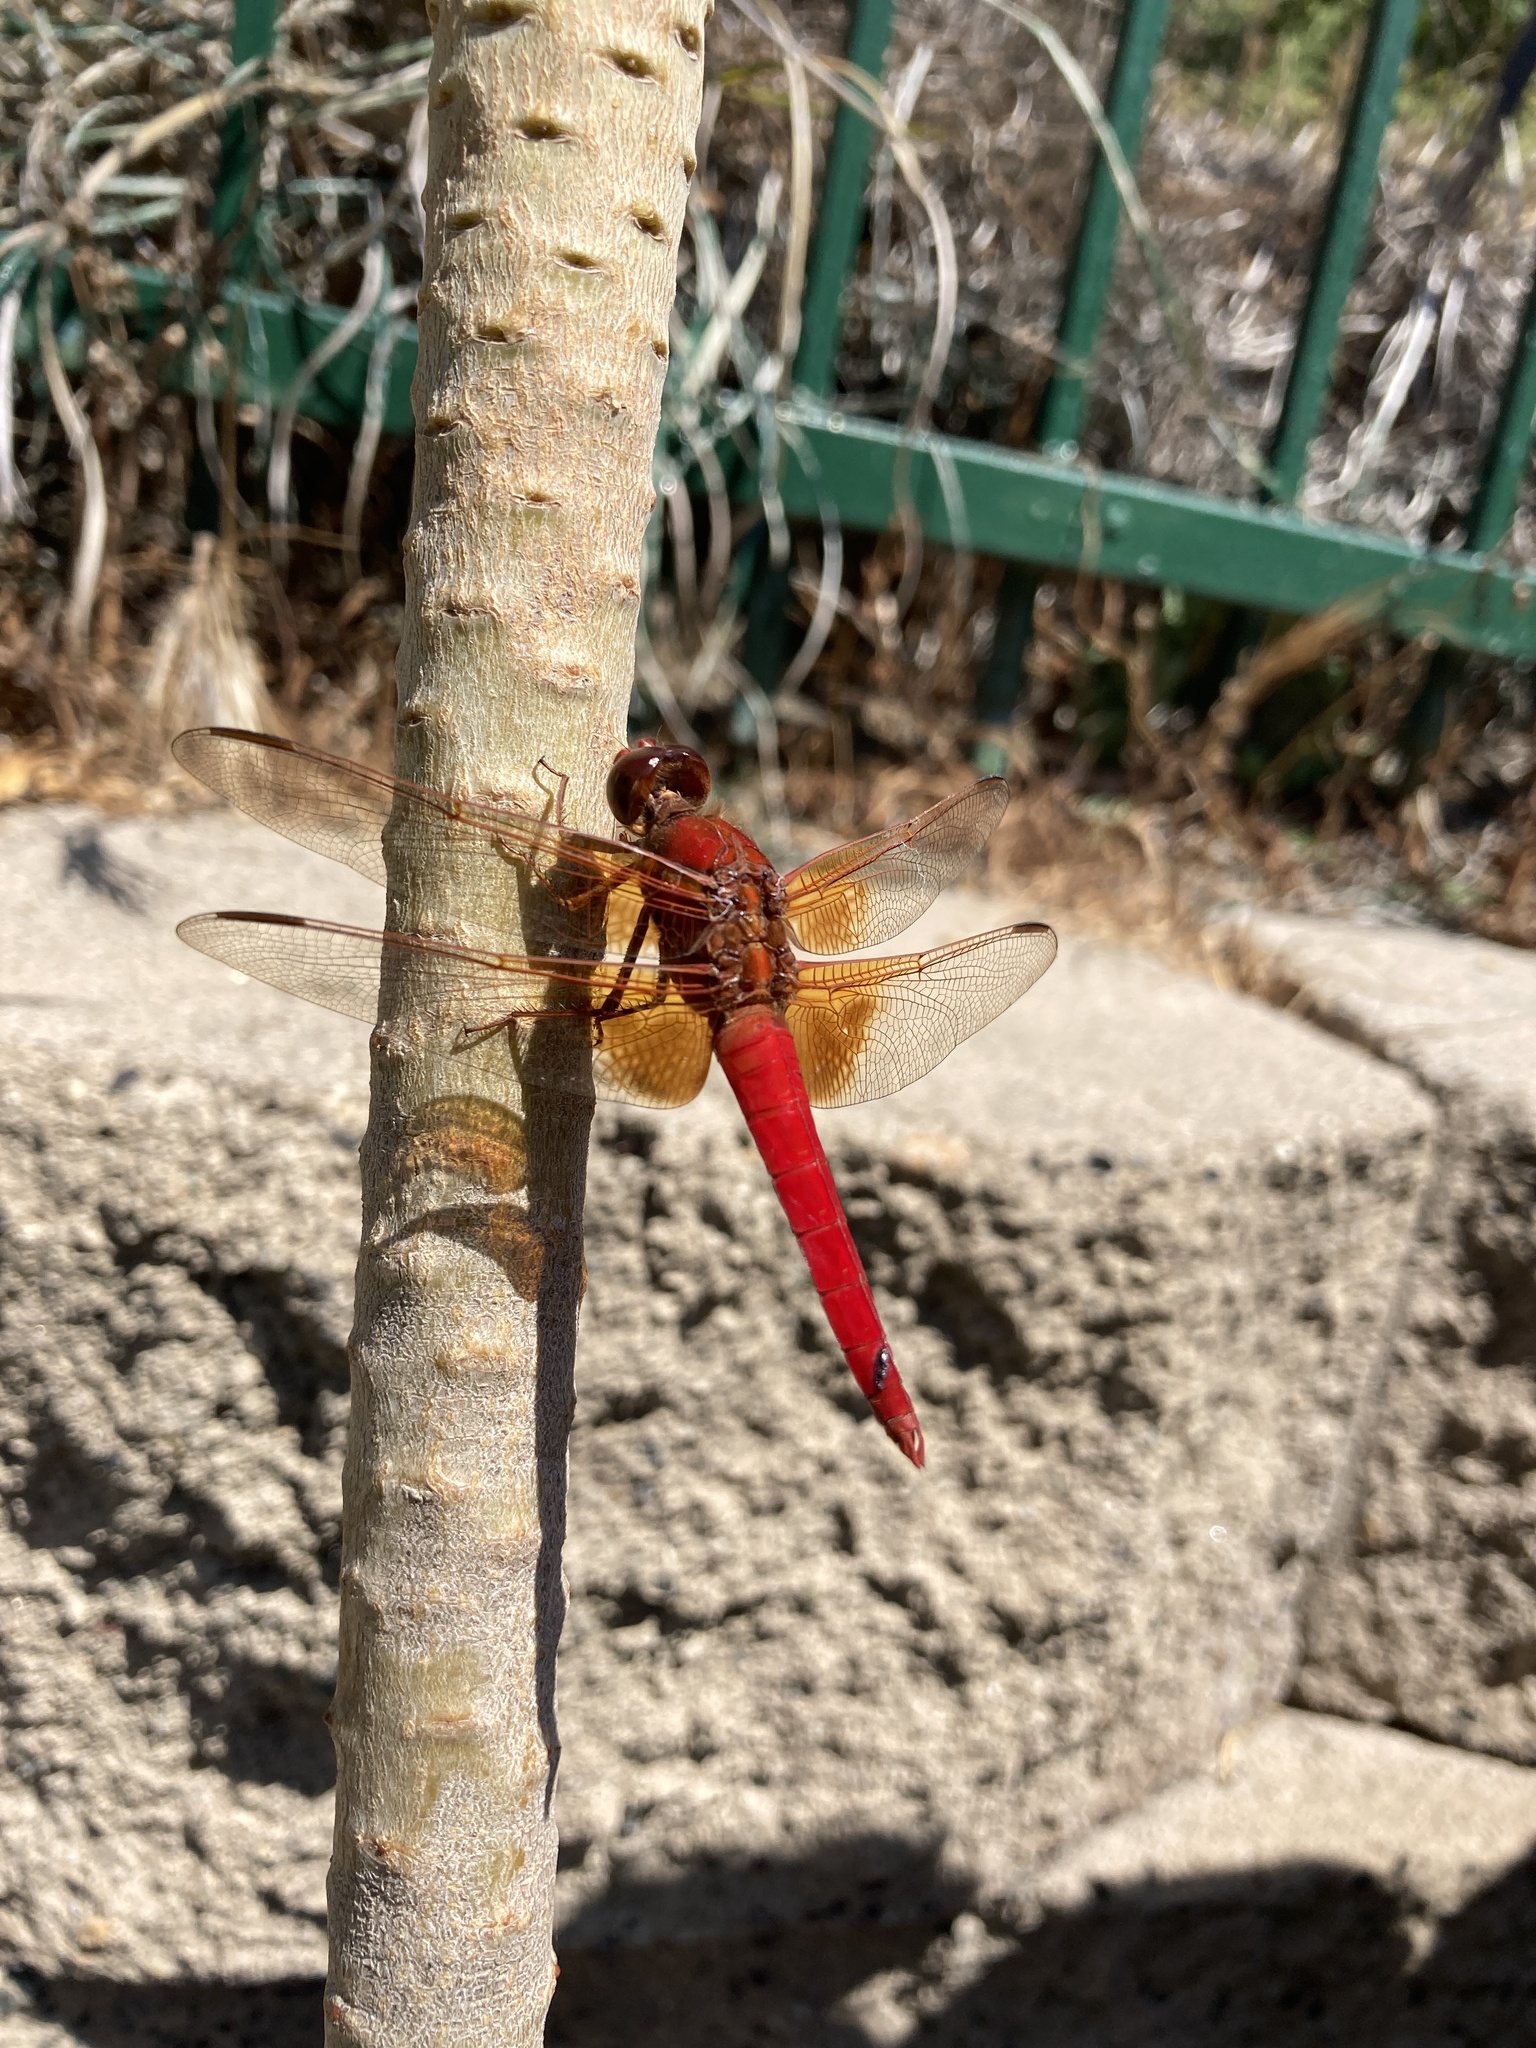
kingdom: Animalia
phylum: Arthropoda
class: Insecta
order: Odonata
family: Libellulidae
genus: Libellula
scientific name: Libellula croceipennis
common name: Neon skimmer
